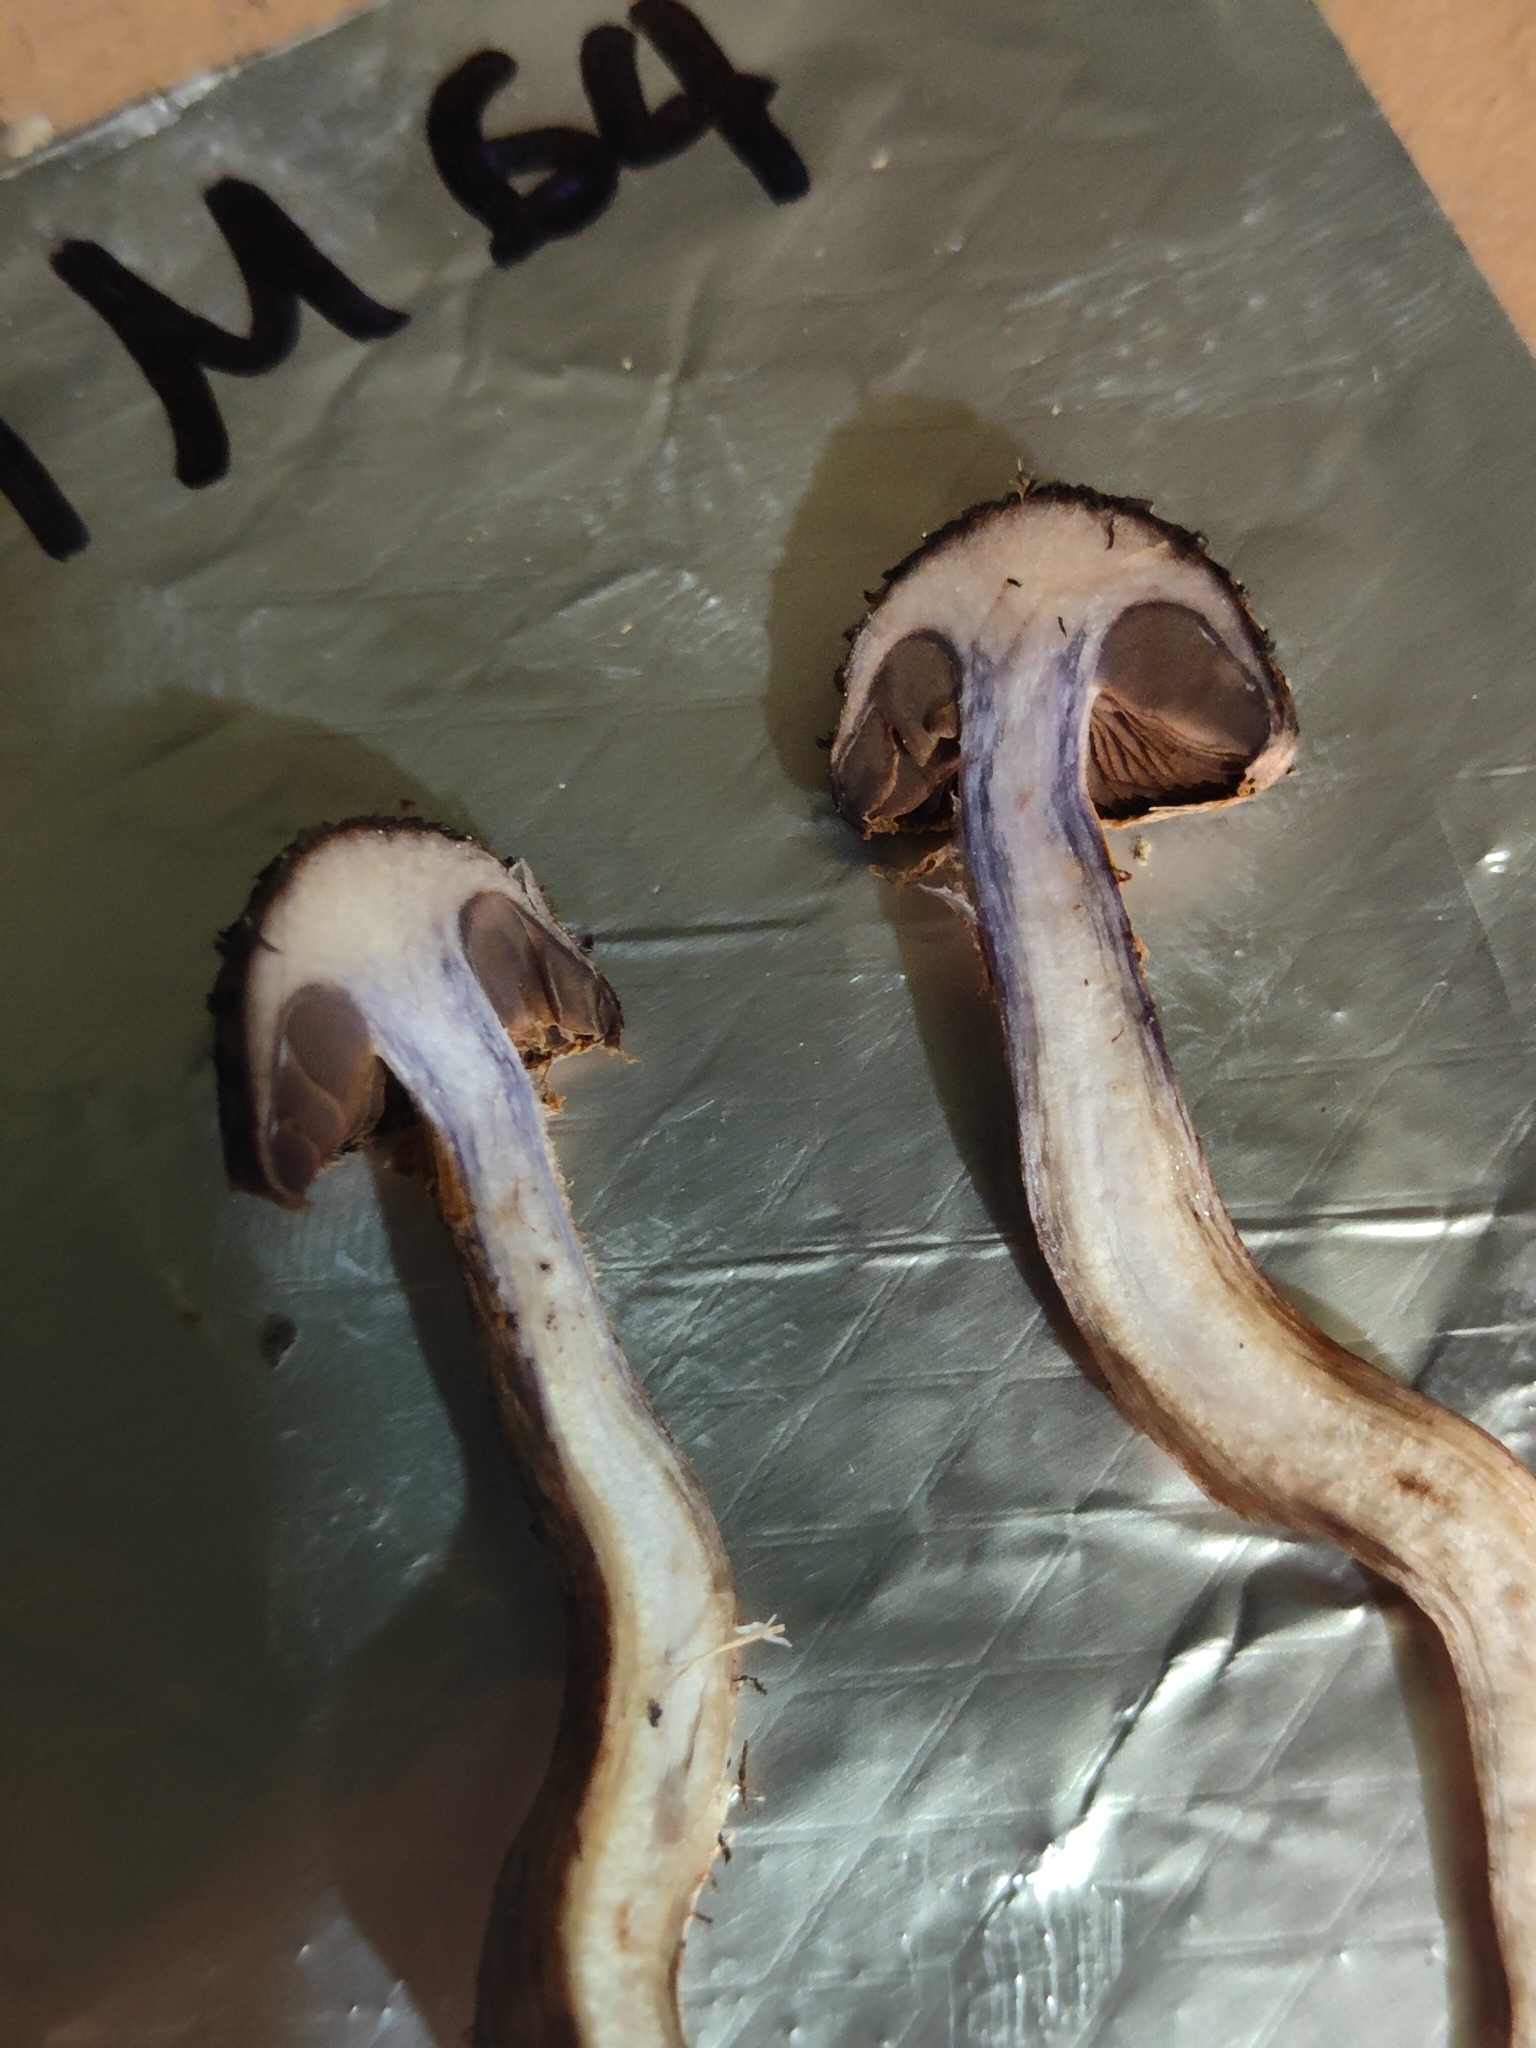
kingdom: Fungi
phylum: Basidiomycota
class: Agaricomycetes
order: Agaricales
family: Cortinariaceae
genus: Cortinarius
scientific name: Cortinarius ursus
